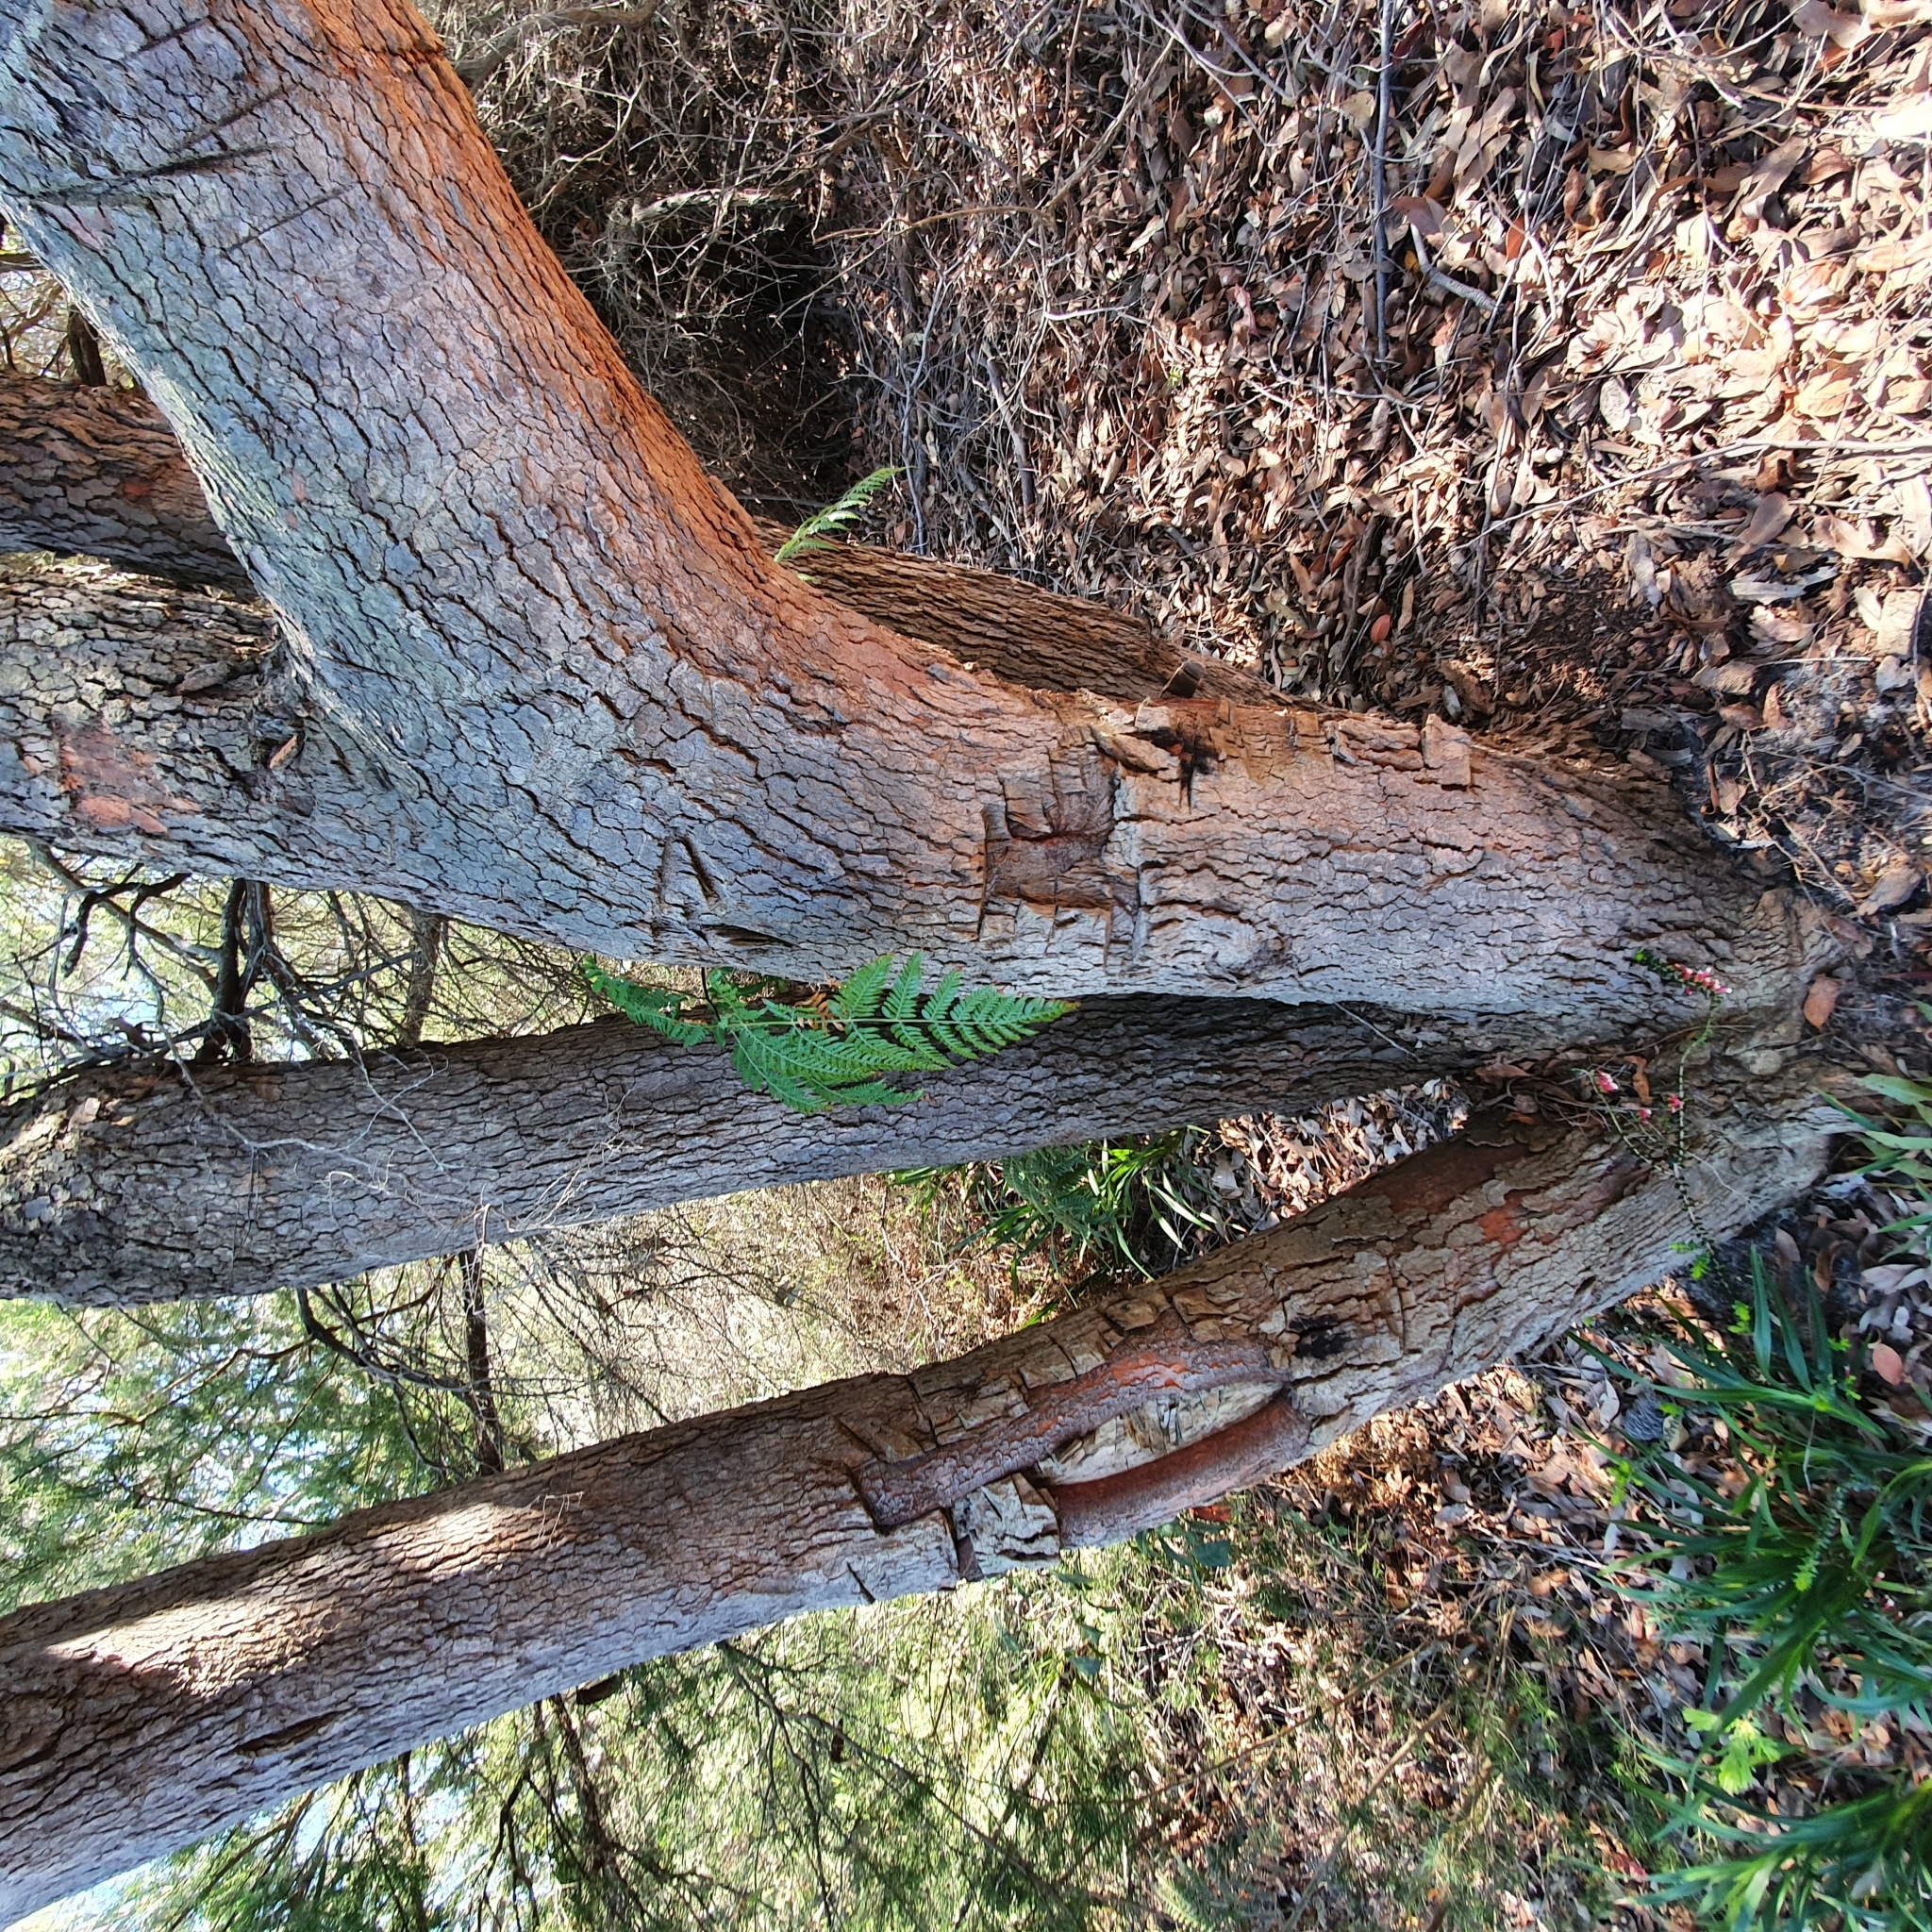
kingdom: Plantae
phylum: Tracheophyta
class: Magnoliopsida
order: Myrtales
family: Myrtaceae
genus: Corymbia
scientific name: Corymbia gummifera
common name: Red bloodwood
